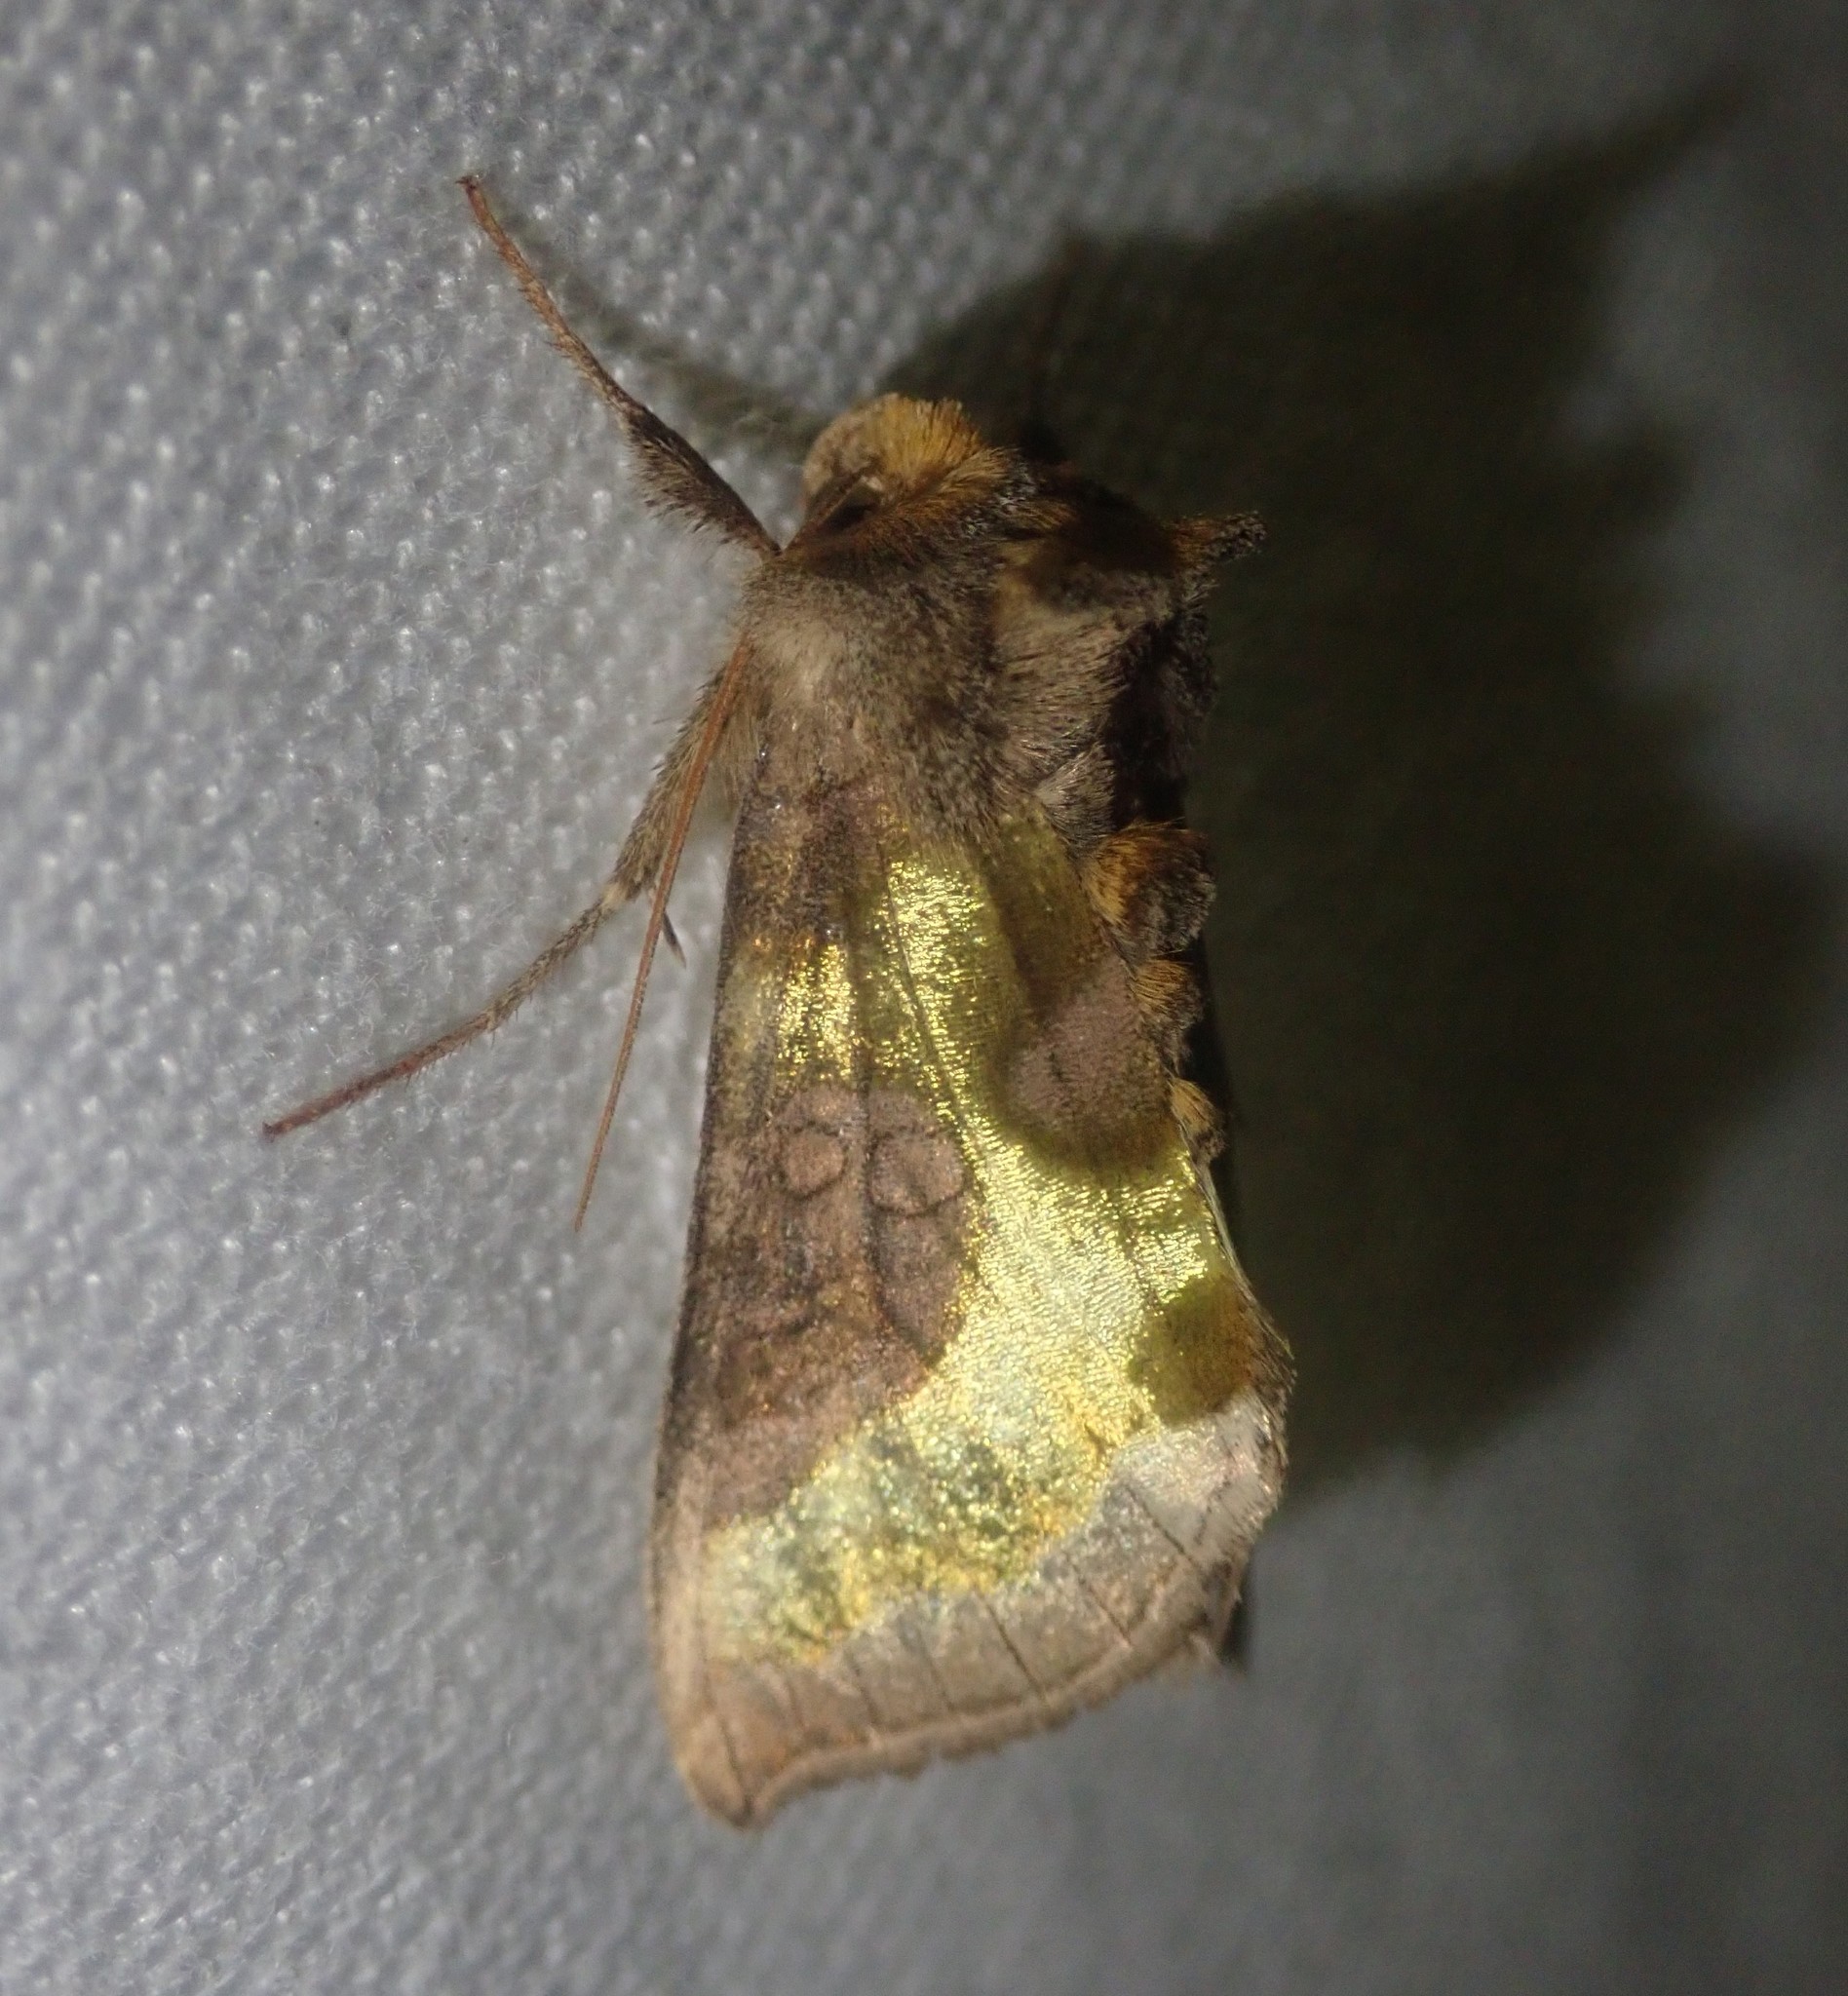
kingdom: Animalia
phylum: Arthropoda
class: Insecta
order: Lepidoptera
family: Noctuidae
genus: Diachrysia
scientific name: Diachrysia chrysitis
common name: Burnished brass
